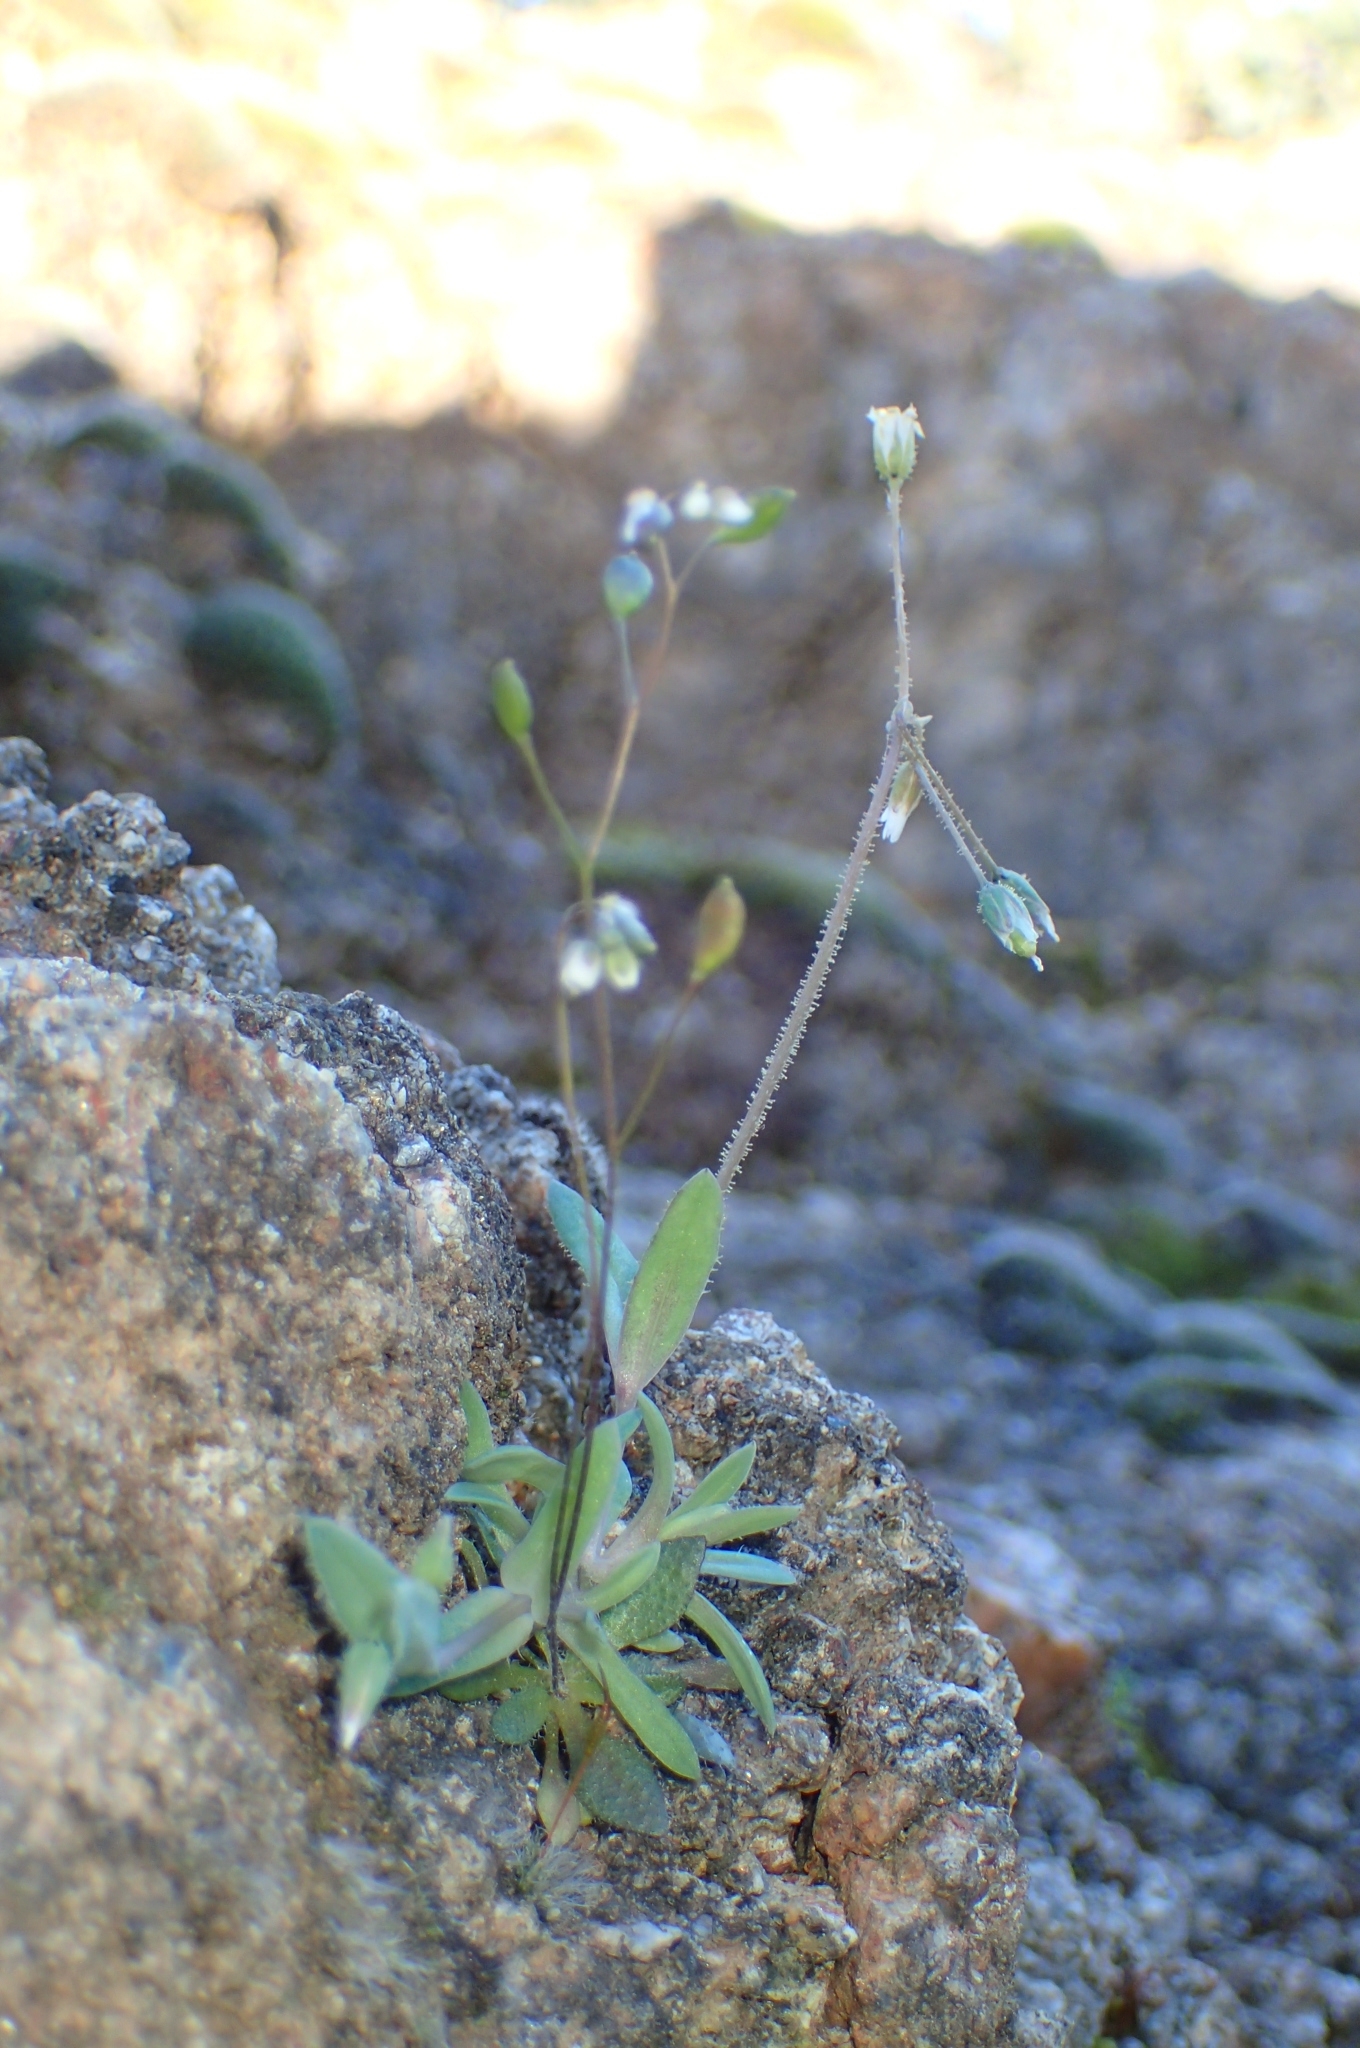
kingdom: Plantae
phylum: Tracheophyta
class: Magnoliopsida
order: Caryophyllales
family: Caryophyllaceae
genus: Holosteum
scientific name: Holosteum umbellatum
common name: Jagged chickweed
